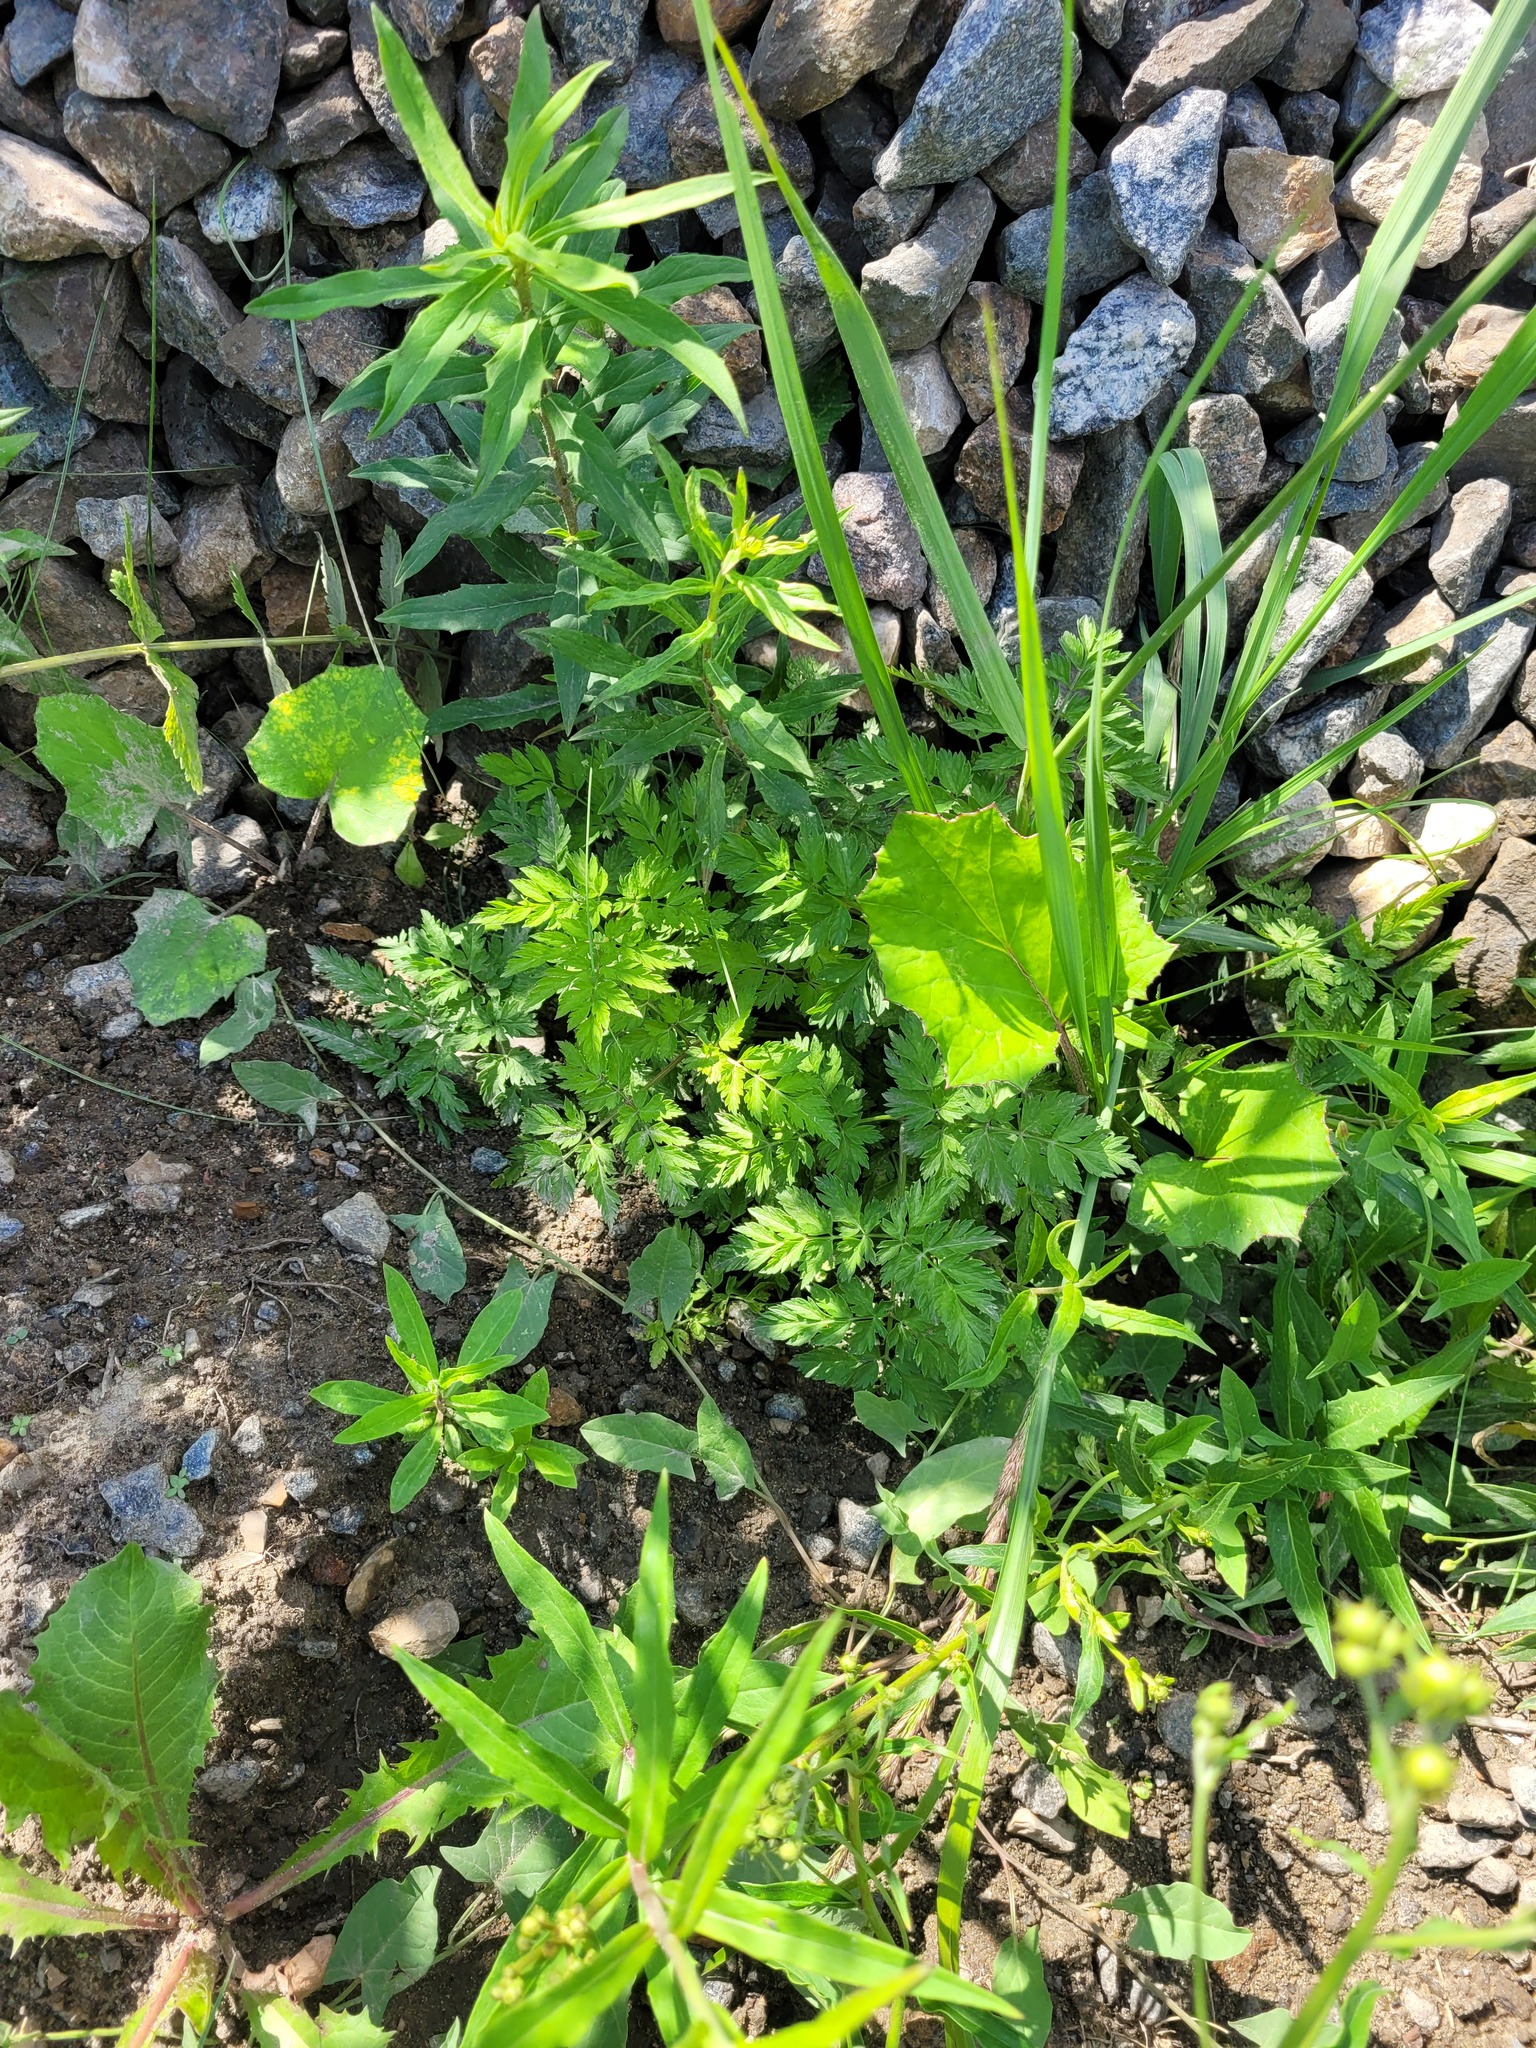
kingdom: Plantae
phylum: Tracheophyta
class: Magnoliopsida
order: Apiales
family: Apiaceae
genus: Anthriscus
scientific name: Anthriscus sylvestris
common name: Cow parsley
